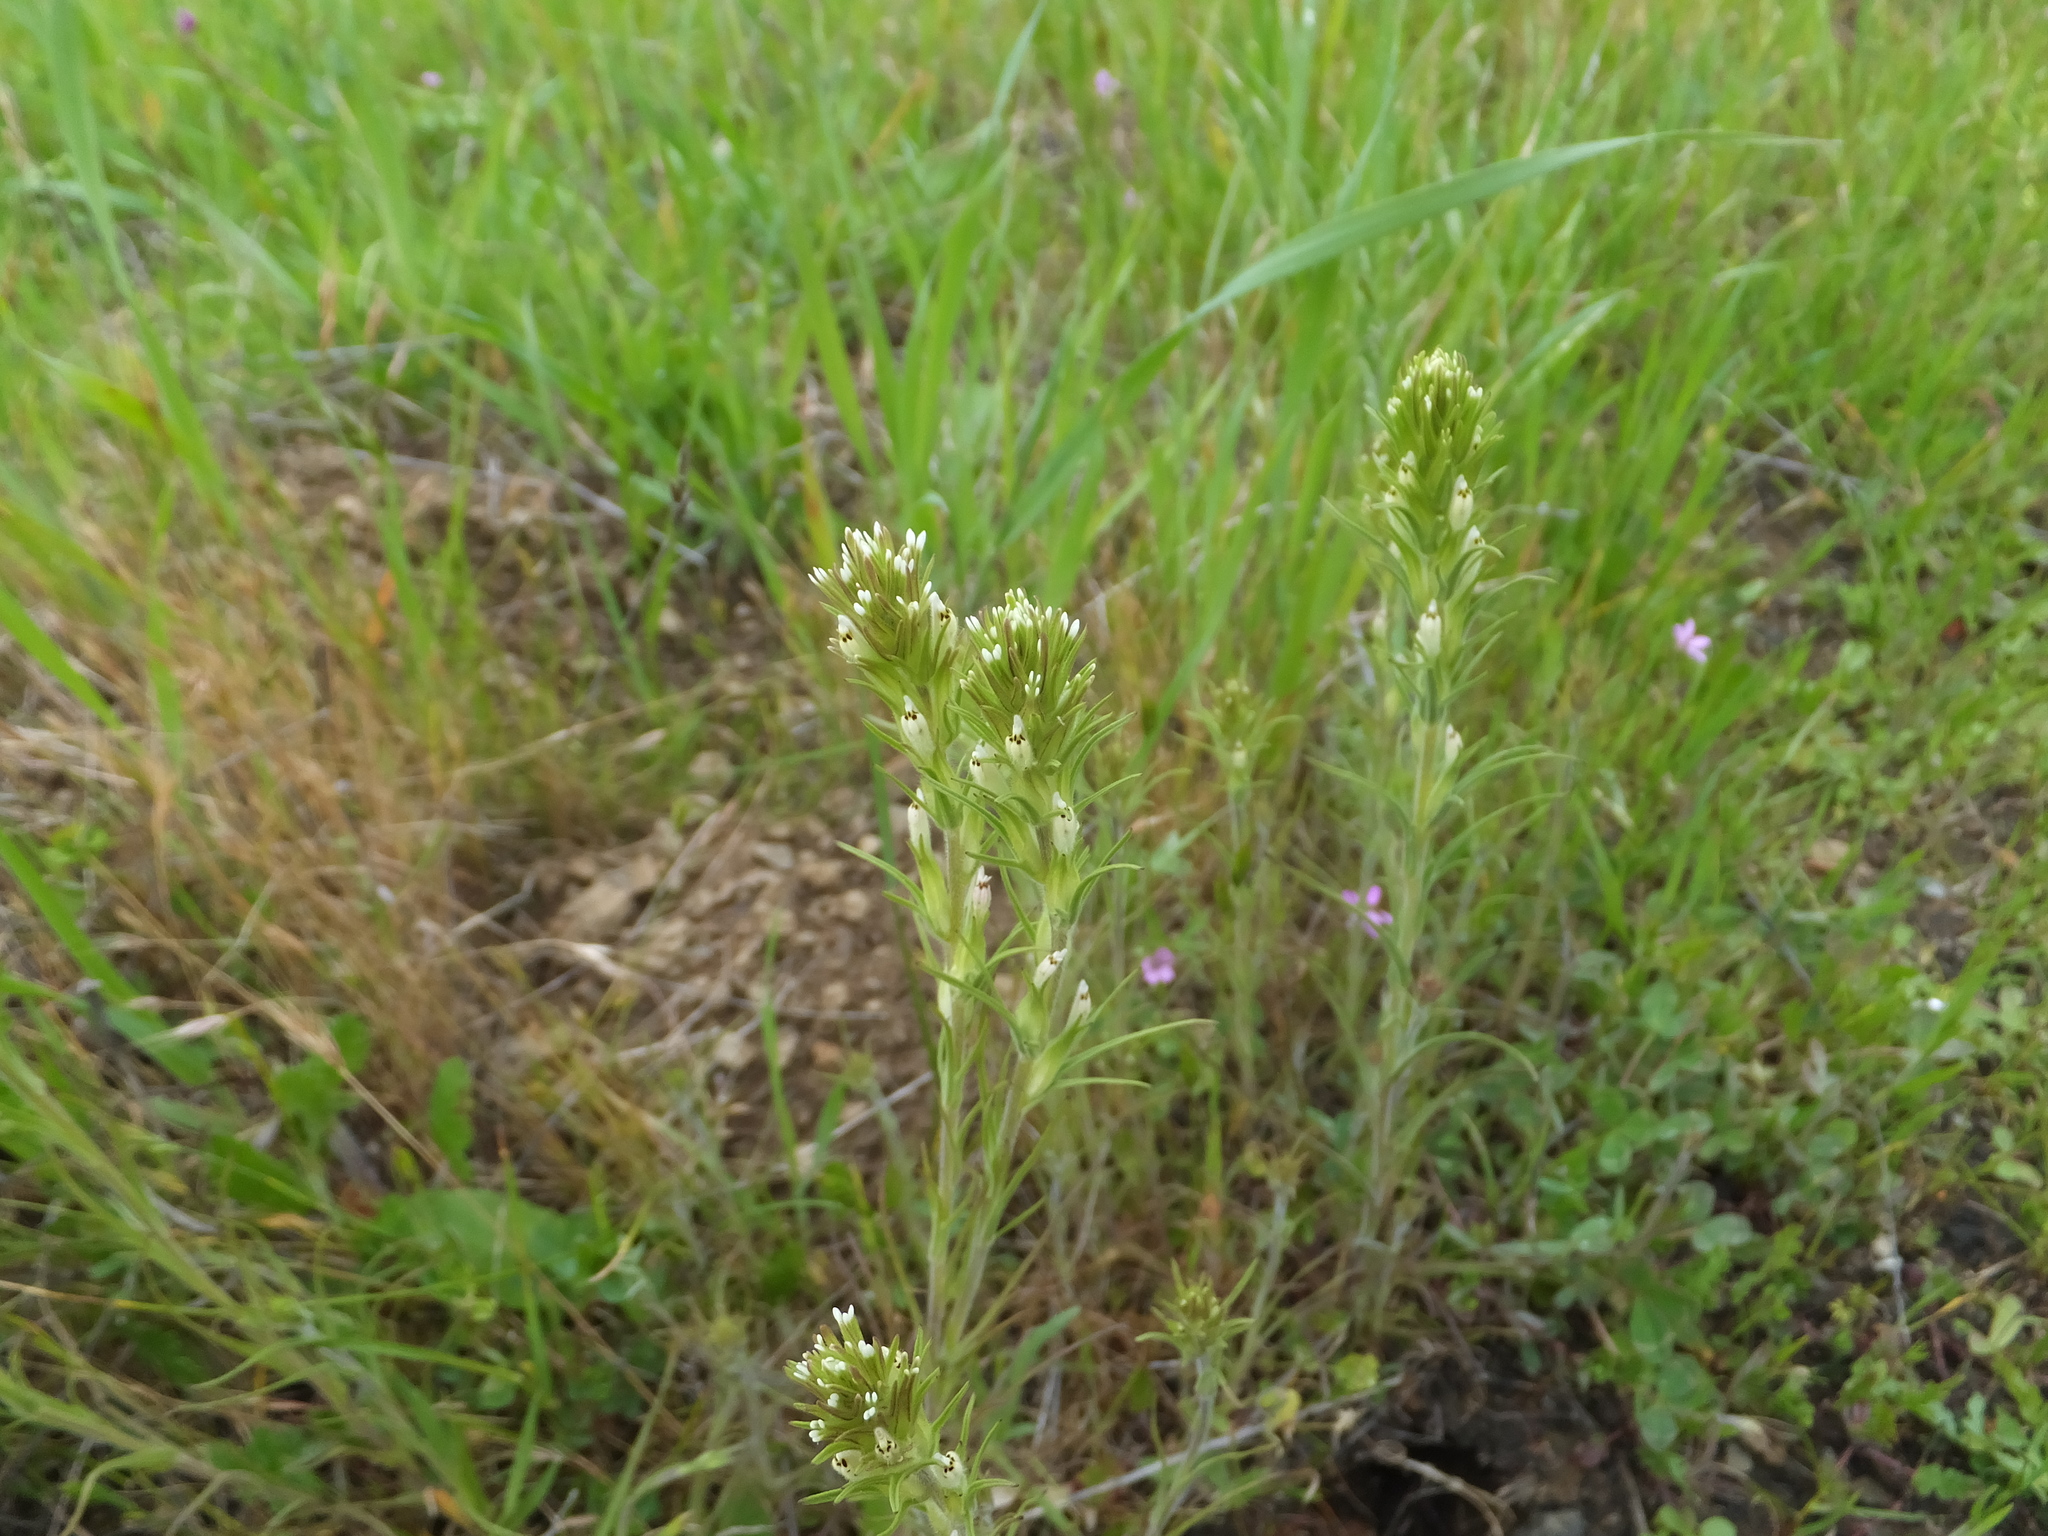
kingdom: Plantae
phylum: Tracheophyta
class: Magnoliopsida
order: Lamiales
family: Orobanchaceae
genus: Castilleja
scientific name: Castilleja attenuata
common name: Valley tassels
